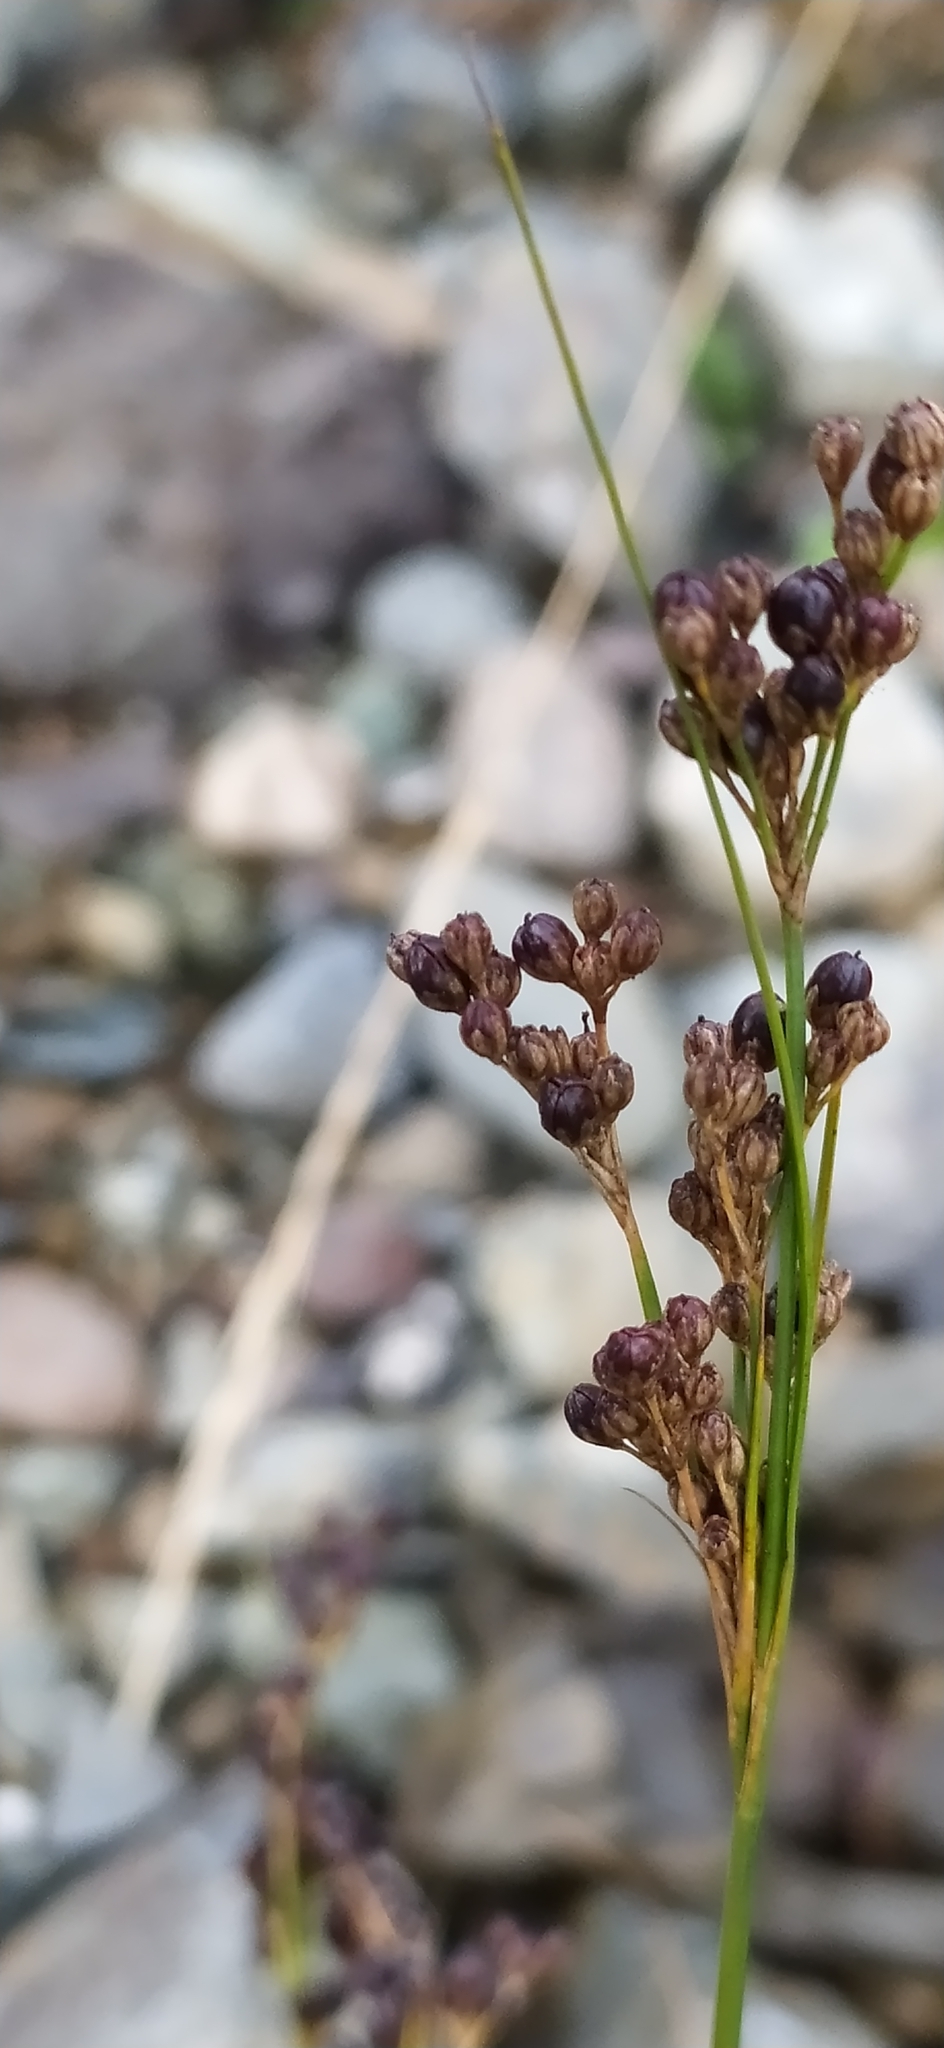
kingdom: Plantae
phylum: Tracheophyta
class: Liliopsida
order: Poales
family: Juncaceae
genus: Juncus
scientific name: Juncus compressus
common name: Round-fruited rush
